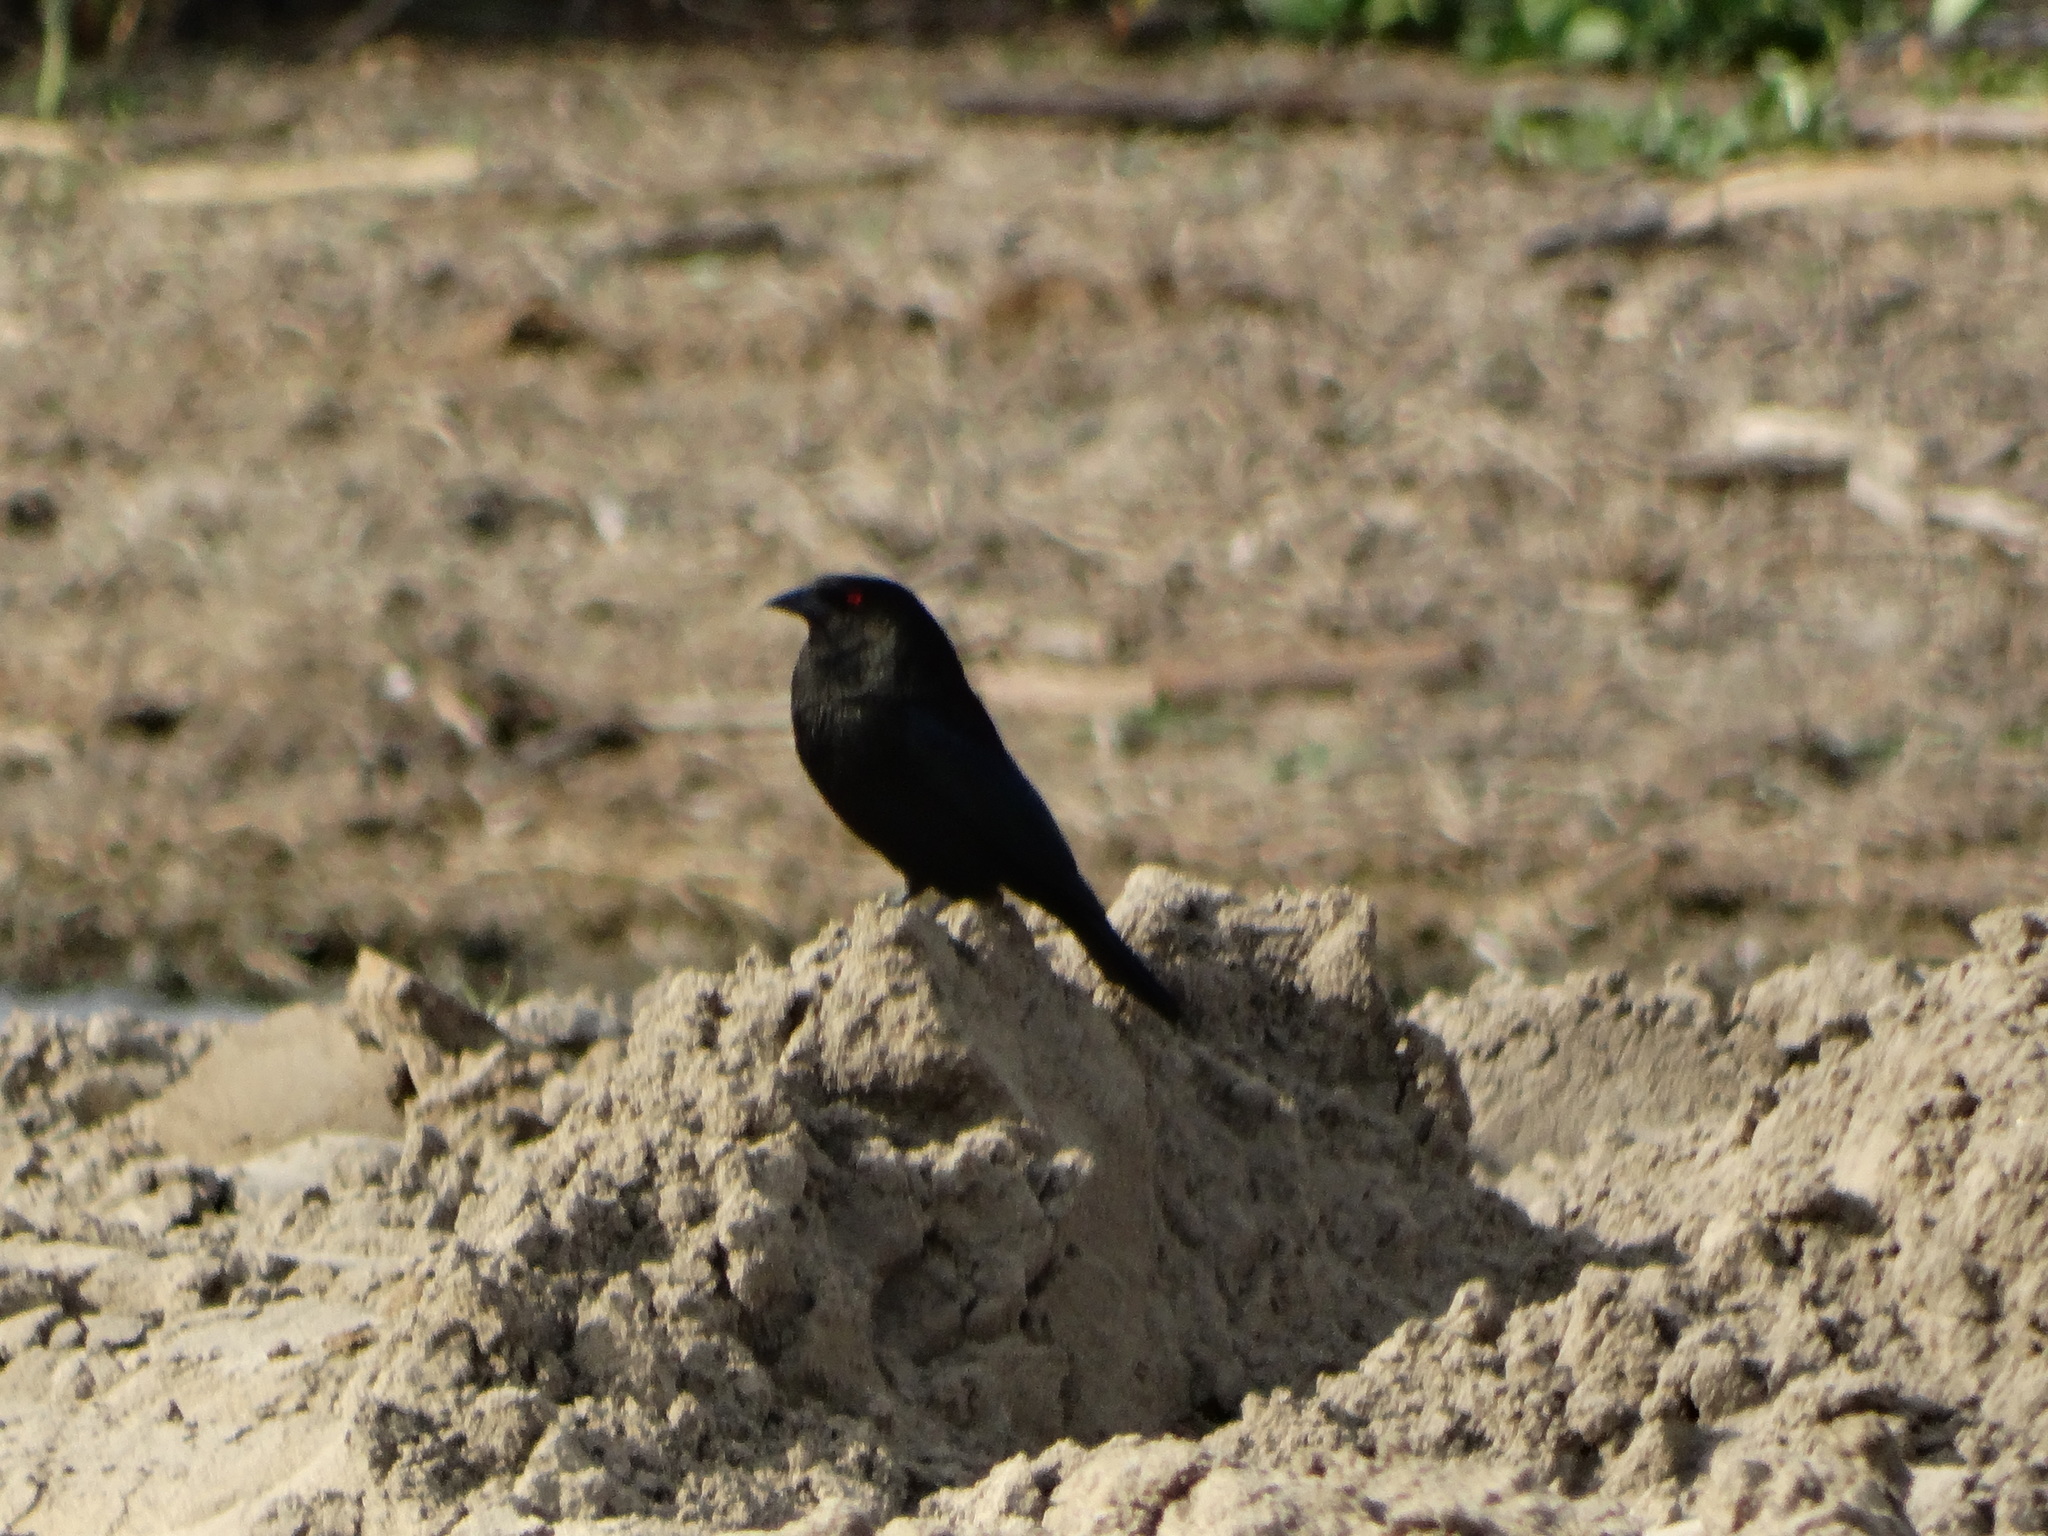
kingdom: Animalia
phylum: Chordata
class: Aves
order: Passeriformes
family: Icteridae
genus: Molothrus
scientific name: Molothrus aeneus
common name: Bronzed cowbird
